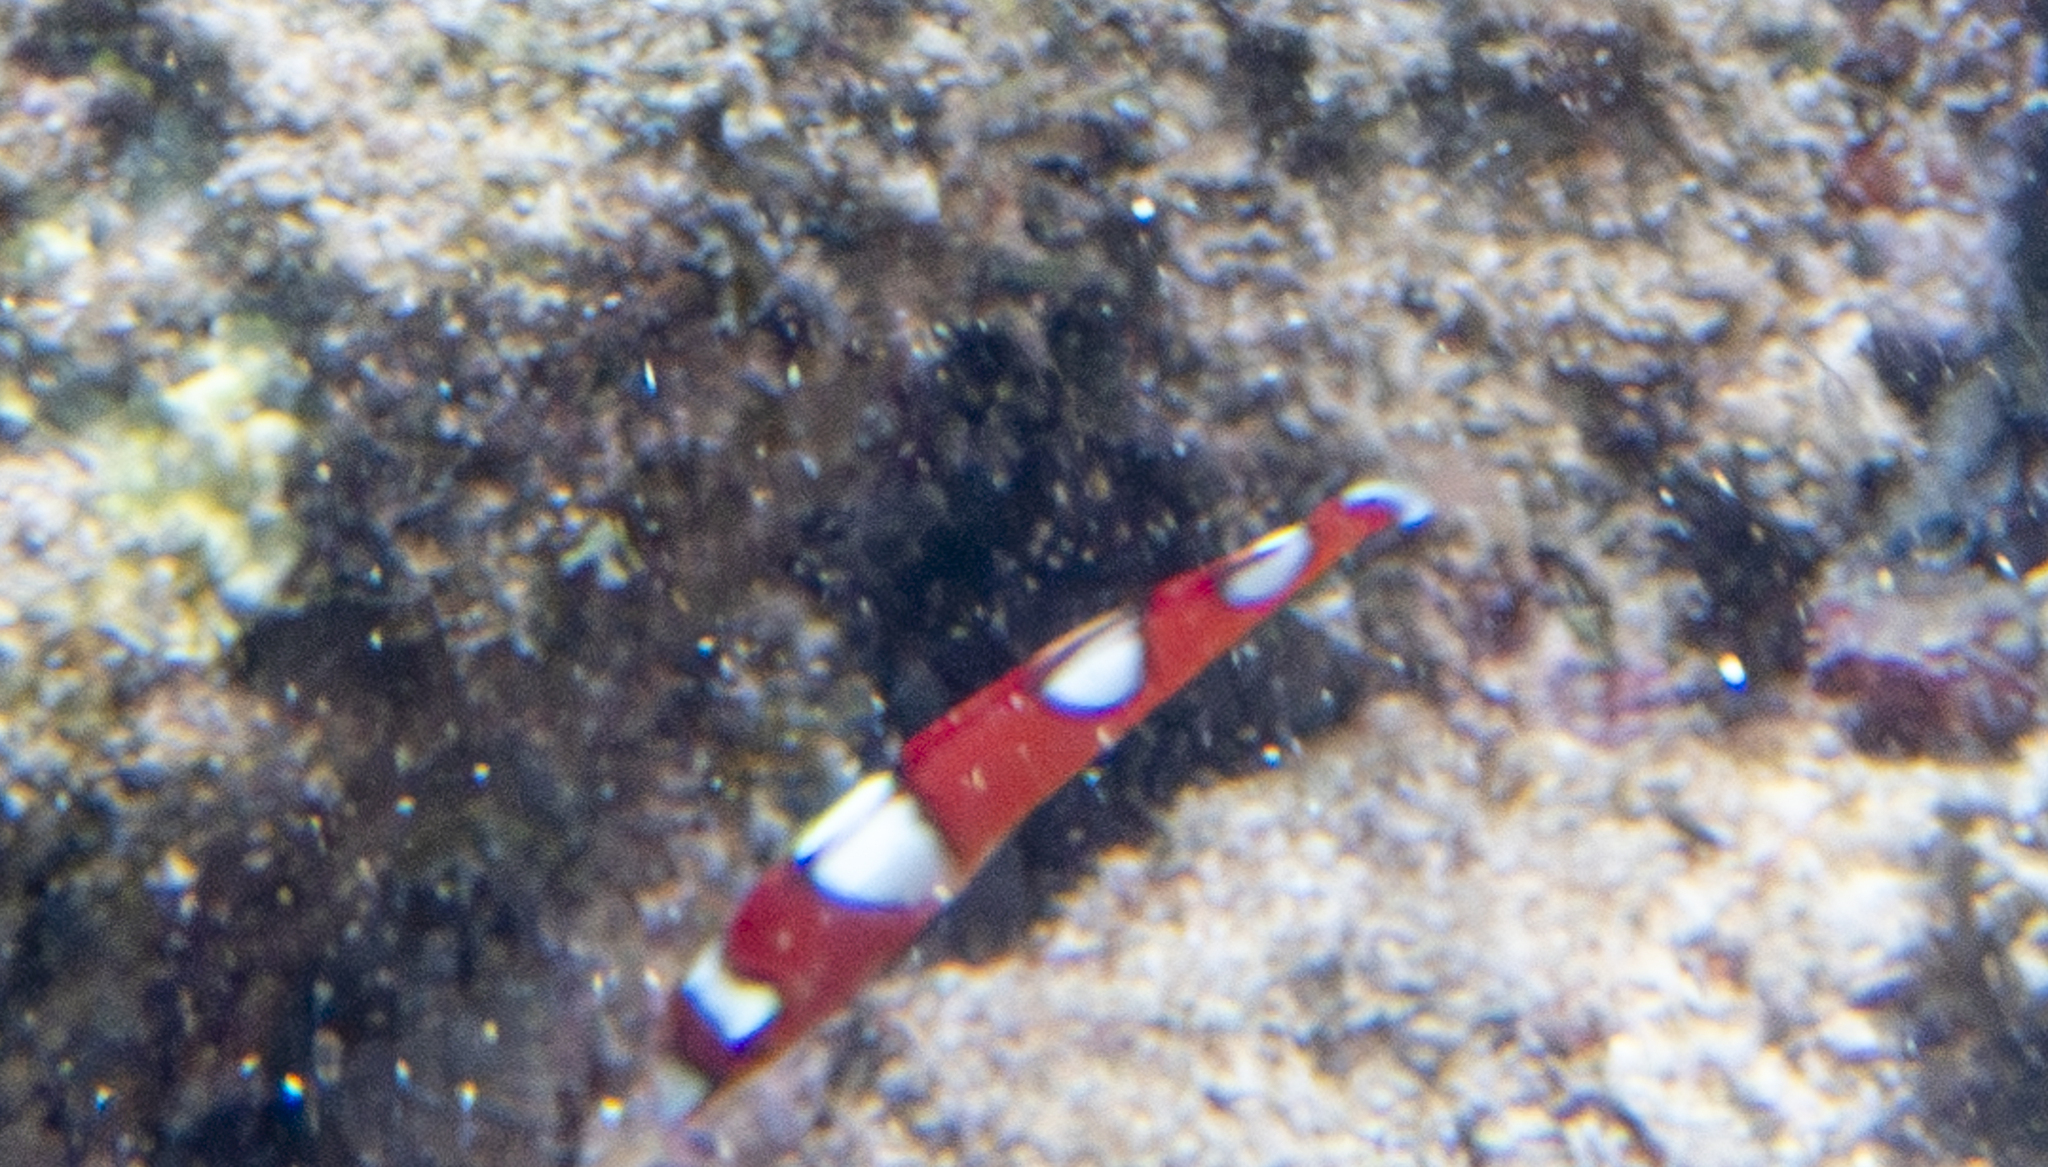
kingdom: Animalia
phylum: Chordata
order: Perciformes
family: Labridae
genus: Coris
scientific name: Coris gaimard
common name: Yellowtail coris
